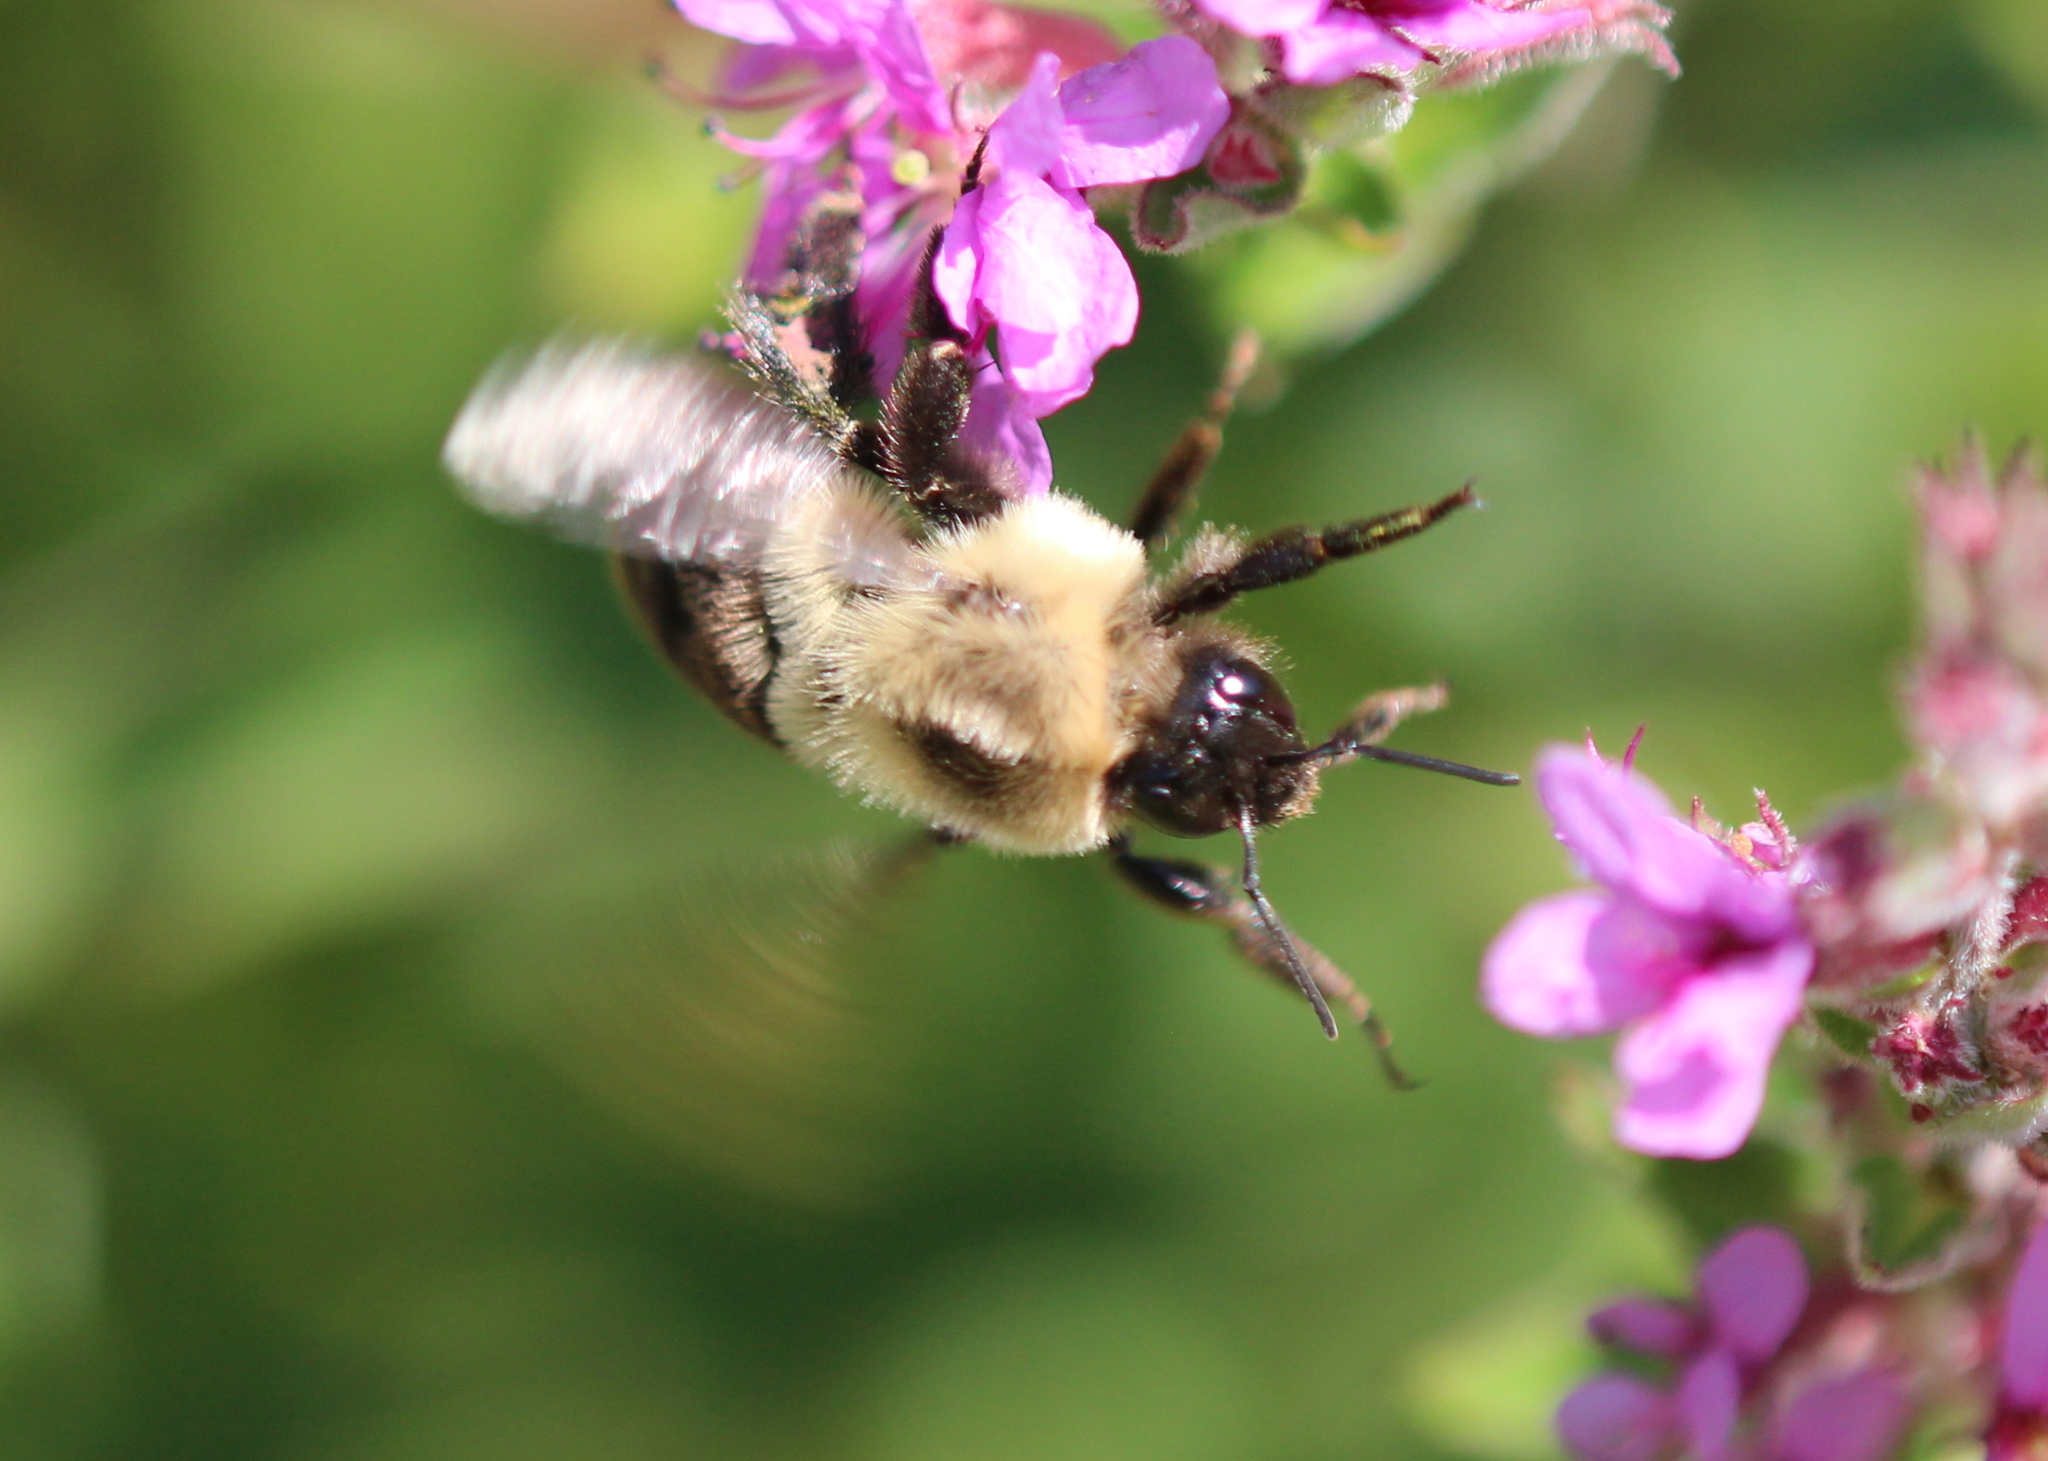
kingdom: Animalia
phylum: Arthropoda
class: Insecta
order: Hymenoptera
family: Apidae
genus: Bombus
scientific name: Bombus impatiens
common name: Common eastern bumble bee
